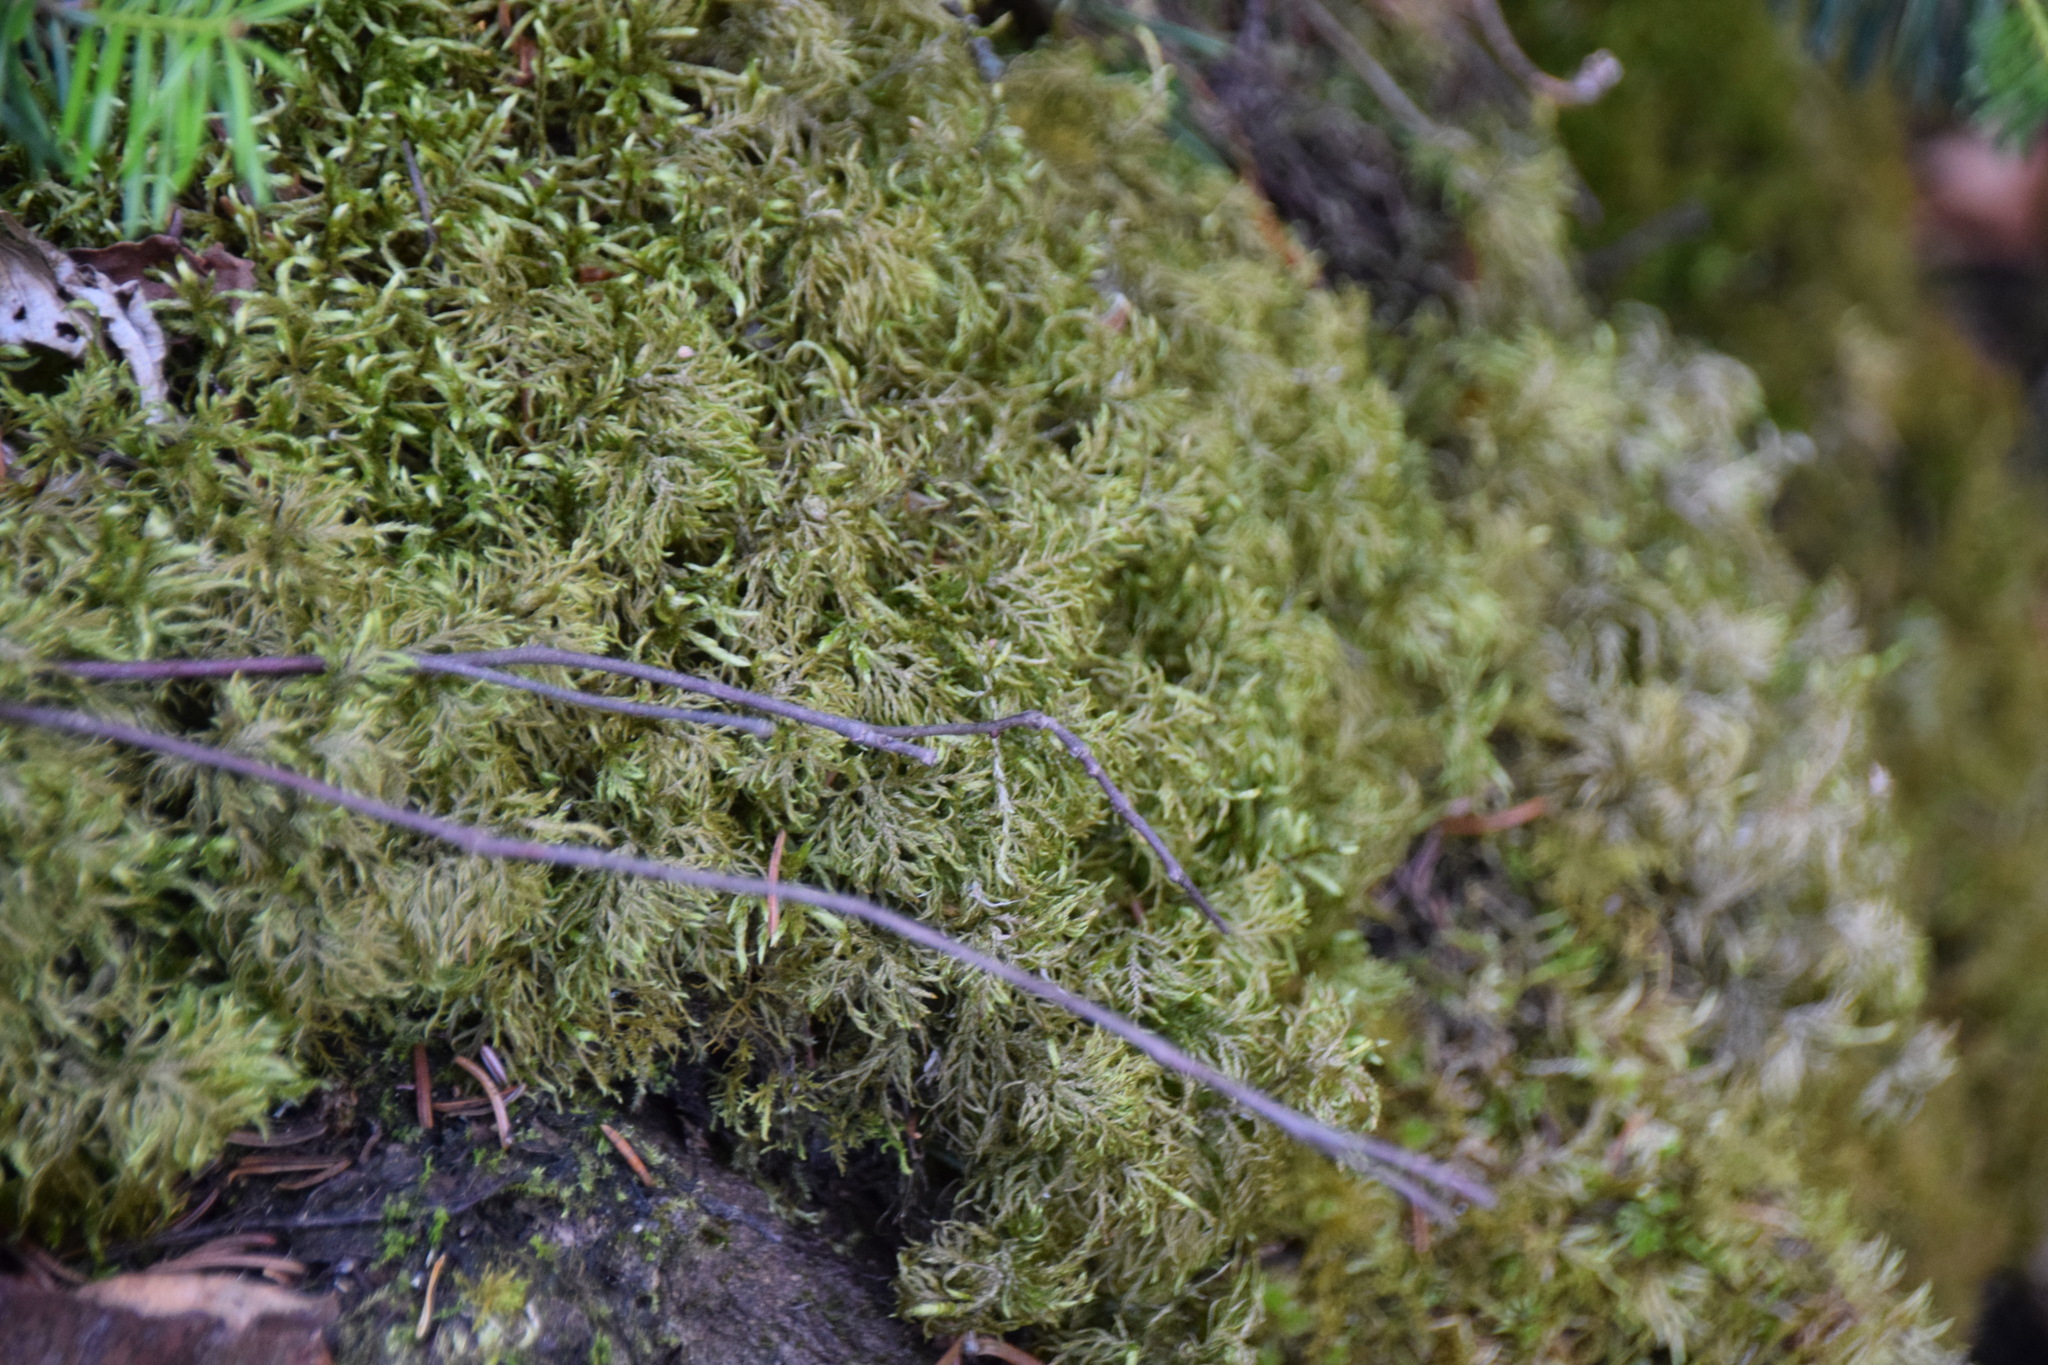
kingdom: Plantae
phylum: Bryophyta
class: Bryopsida
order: Hypnales
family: Hylocomiaceae
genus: Hylocomium
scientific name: Hylocomium splendens
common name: Stairstep moss
